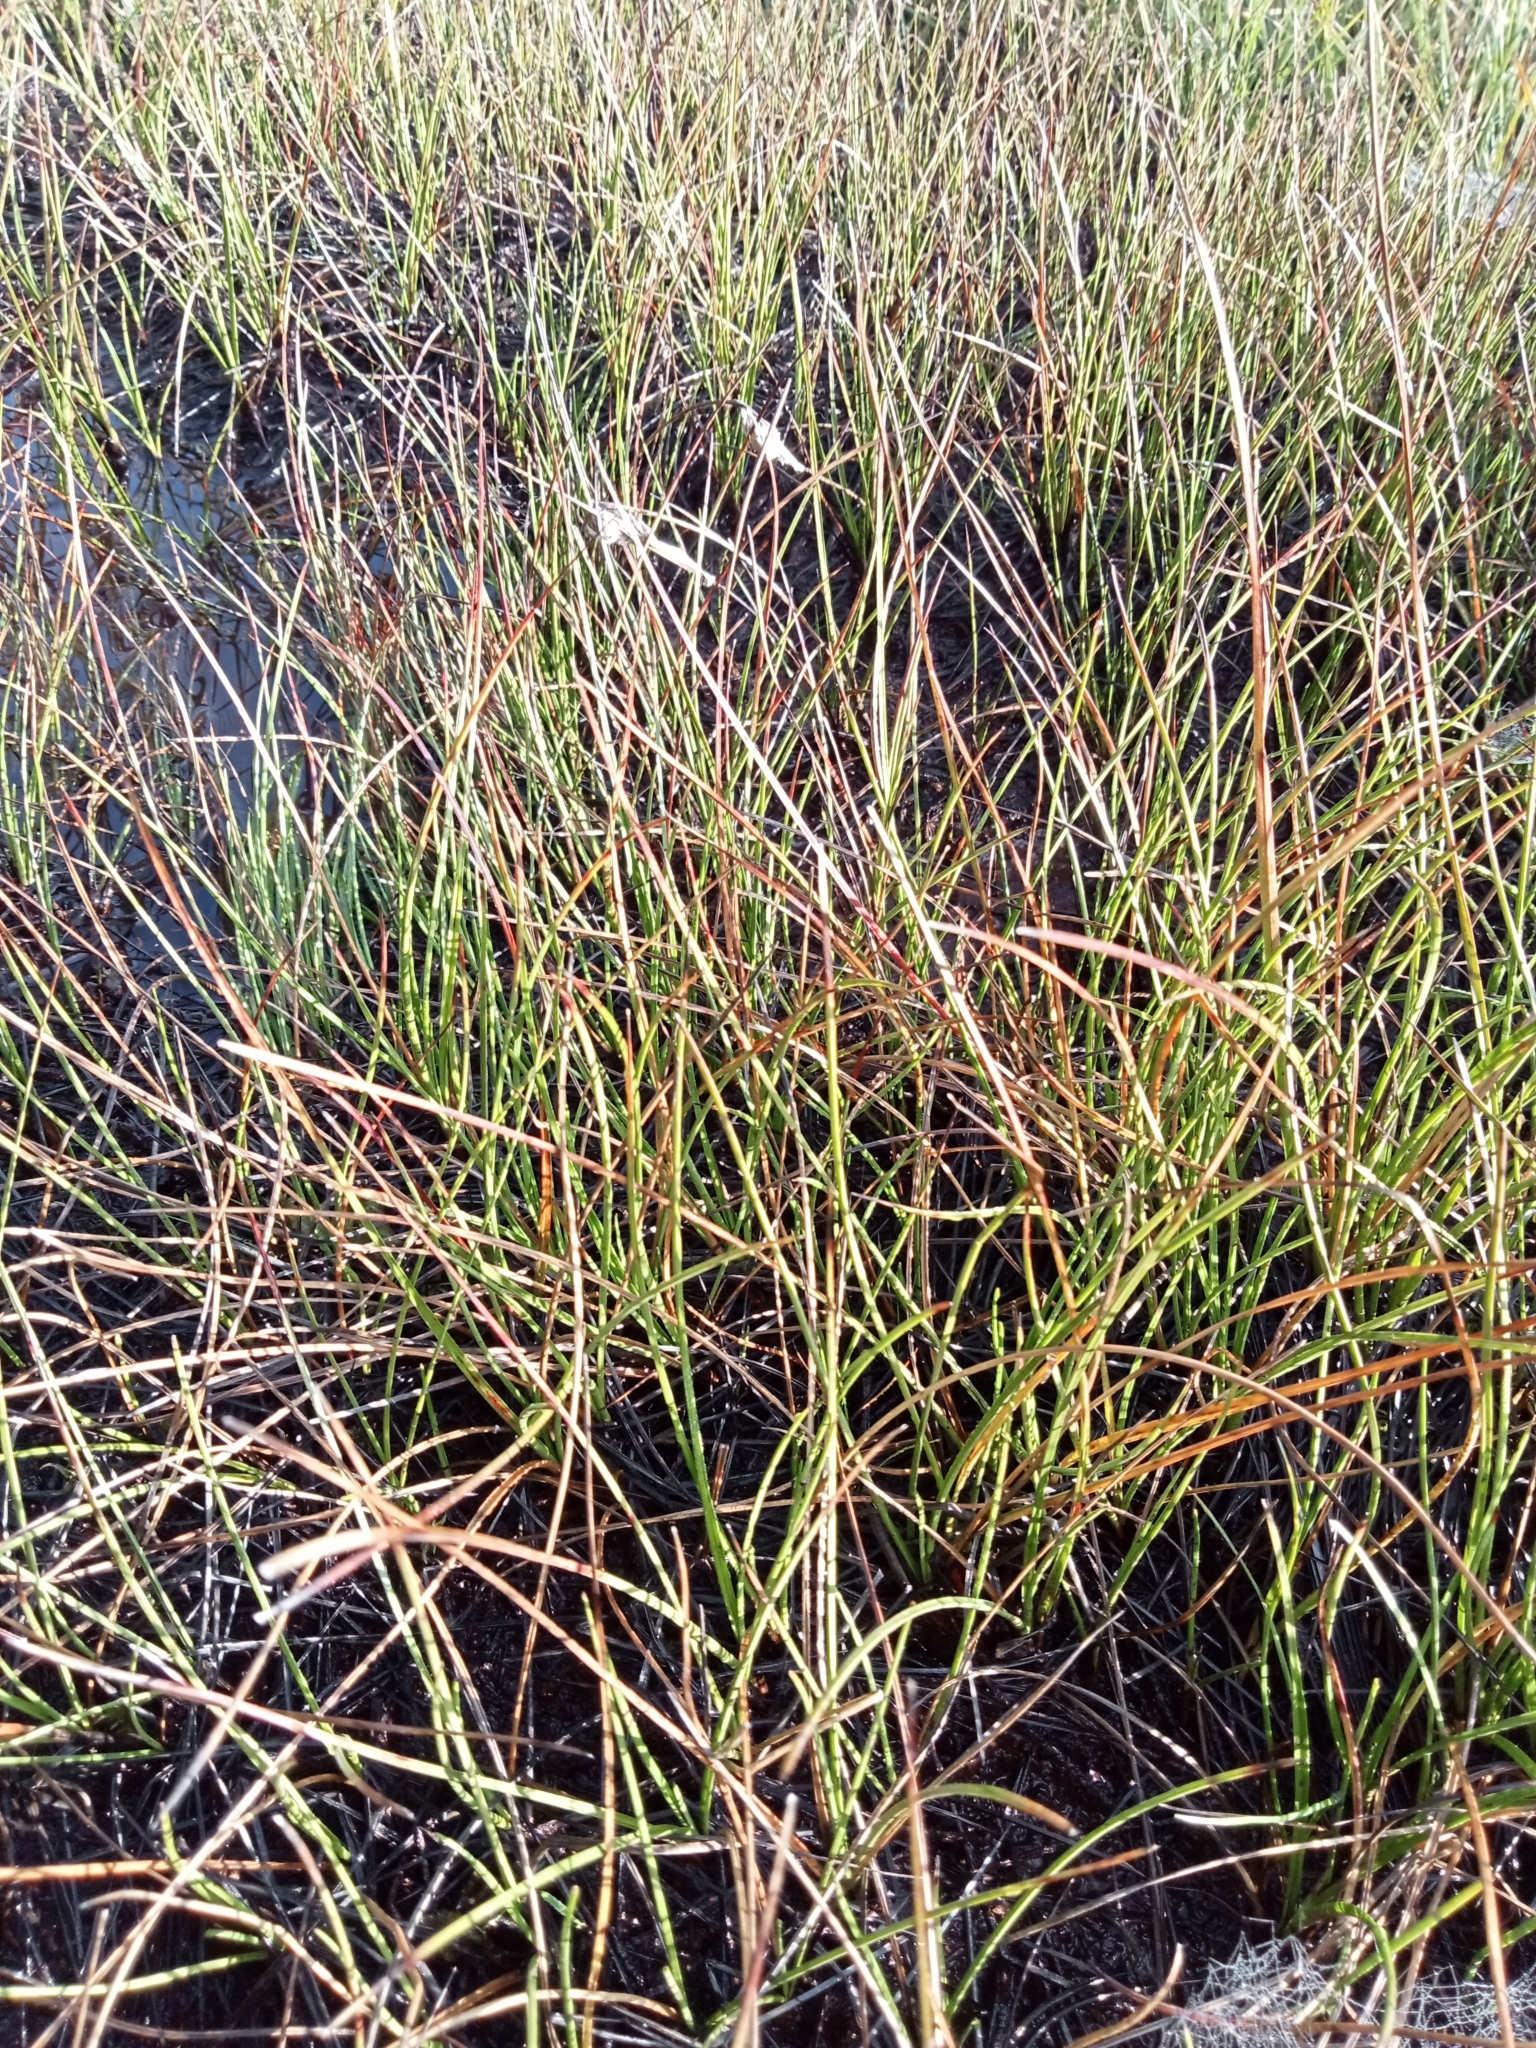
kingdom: Plantae
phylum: Tracheophyta
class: Liliopsida
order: Poales
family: Cyperaceae
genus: Eriophorum
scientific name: Eriophorum angustifolium
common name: Common cottongrass
